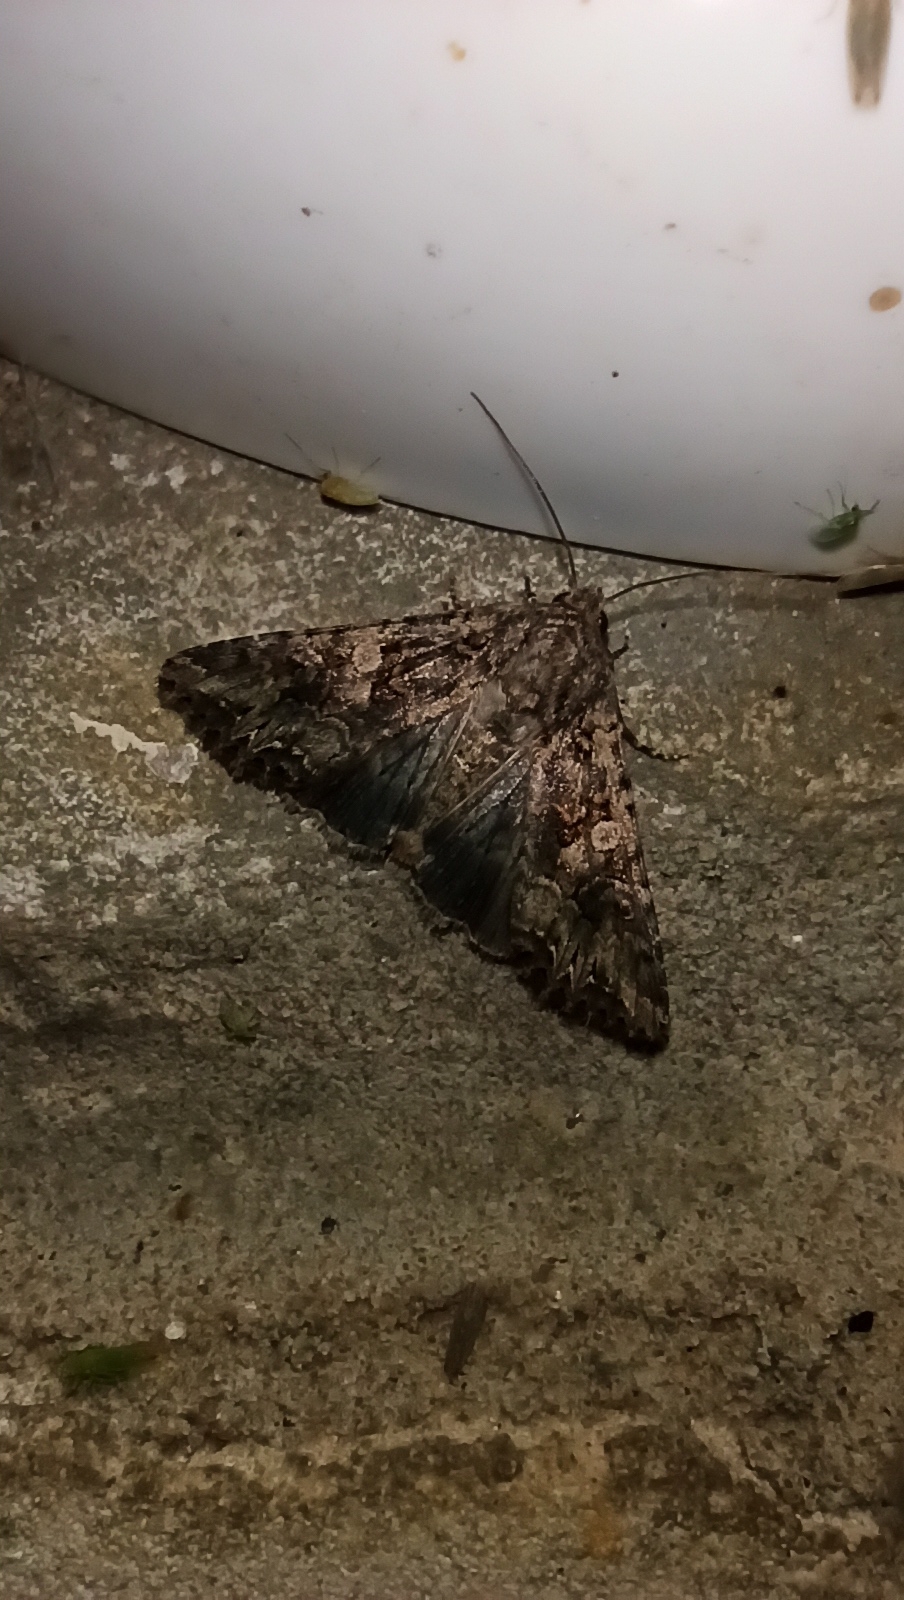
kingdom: Animalia
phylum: Arthropoda
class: Insecta
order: Lepidoptera
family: Noctuidae
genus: Anarta
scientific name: Anarta trifolii
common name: Clover cutworm moth
